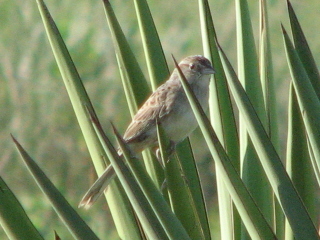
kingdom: Animalia
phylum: Chordata
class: Aves
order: Passeriformes
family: Passerellidae
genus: Peucaea
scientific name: Peucaea cassinii
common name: Cassin's sparrow
